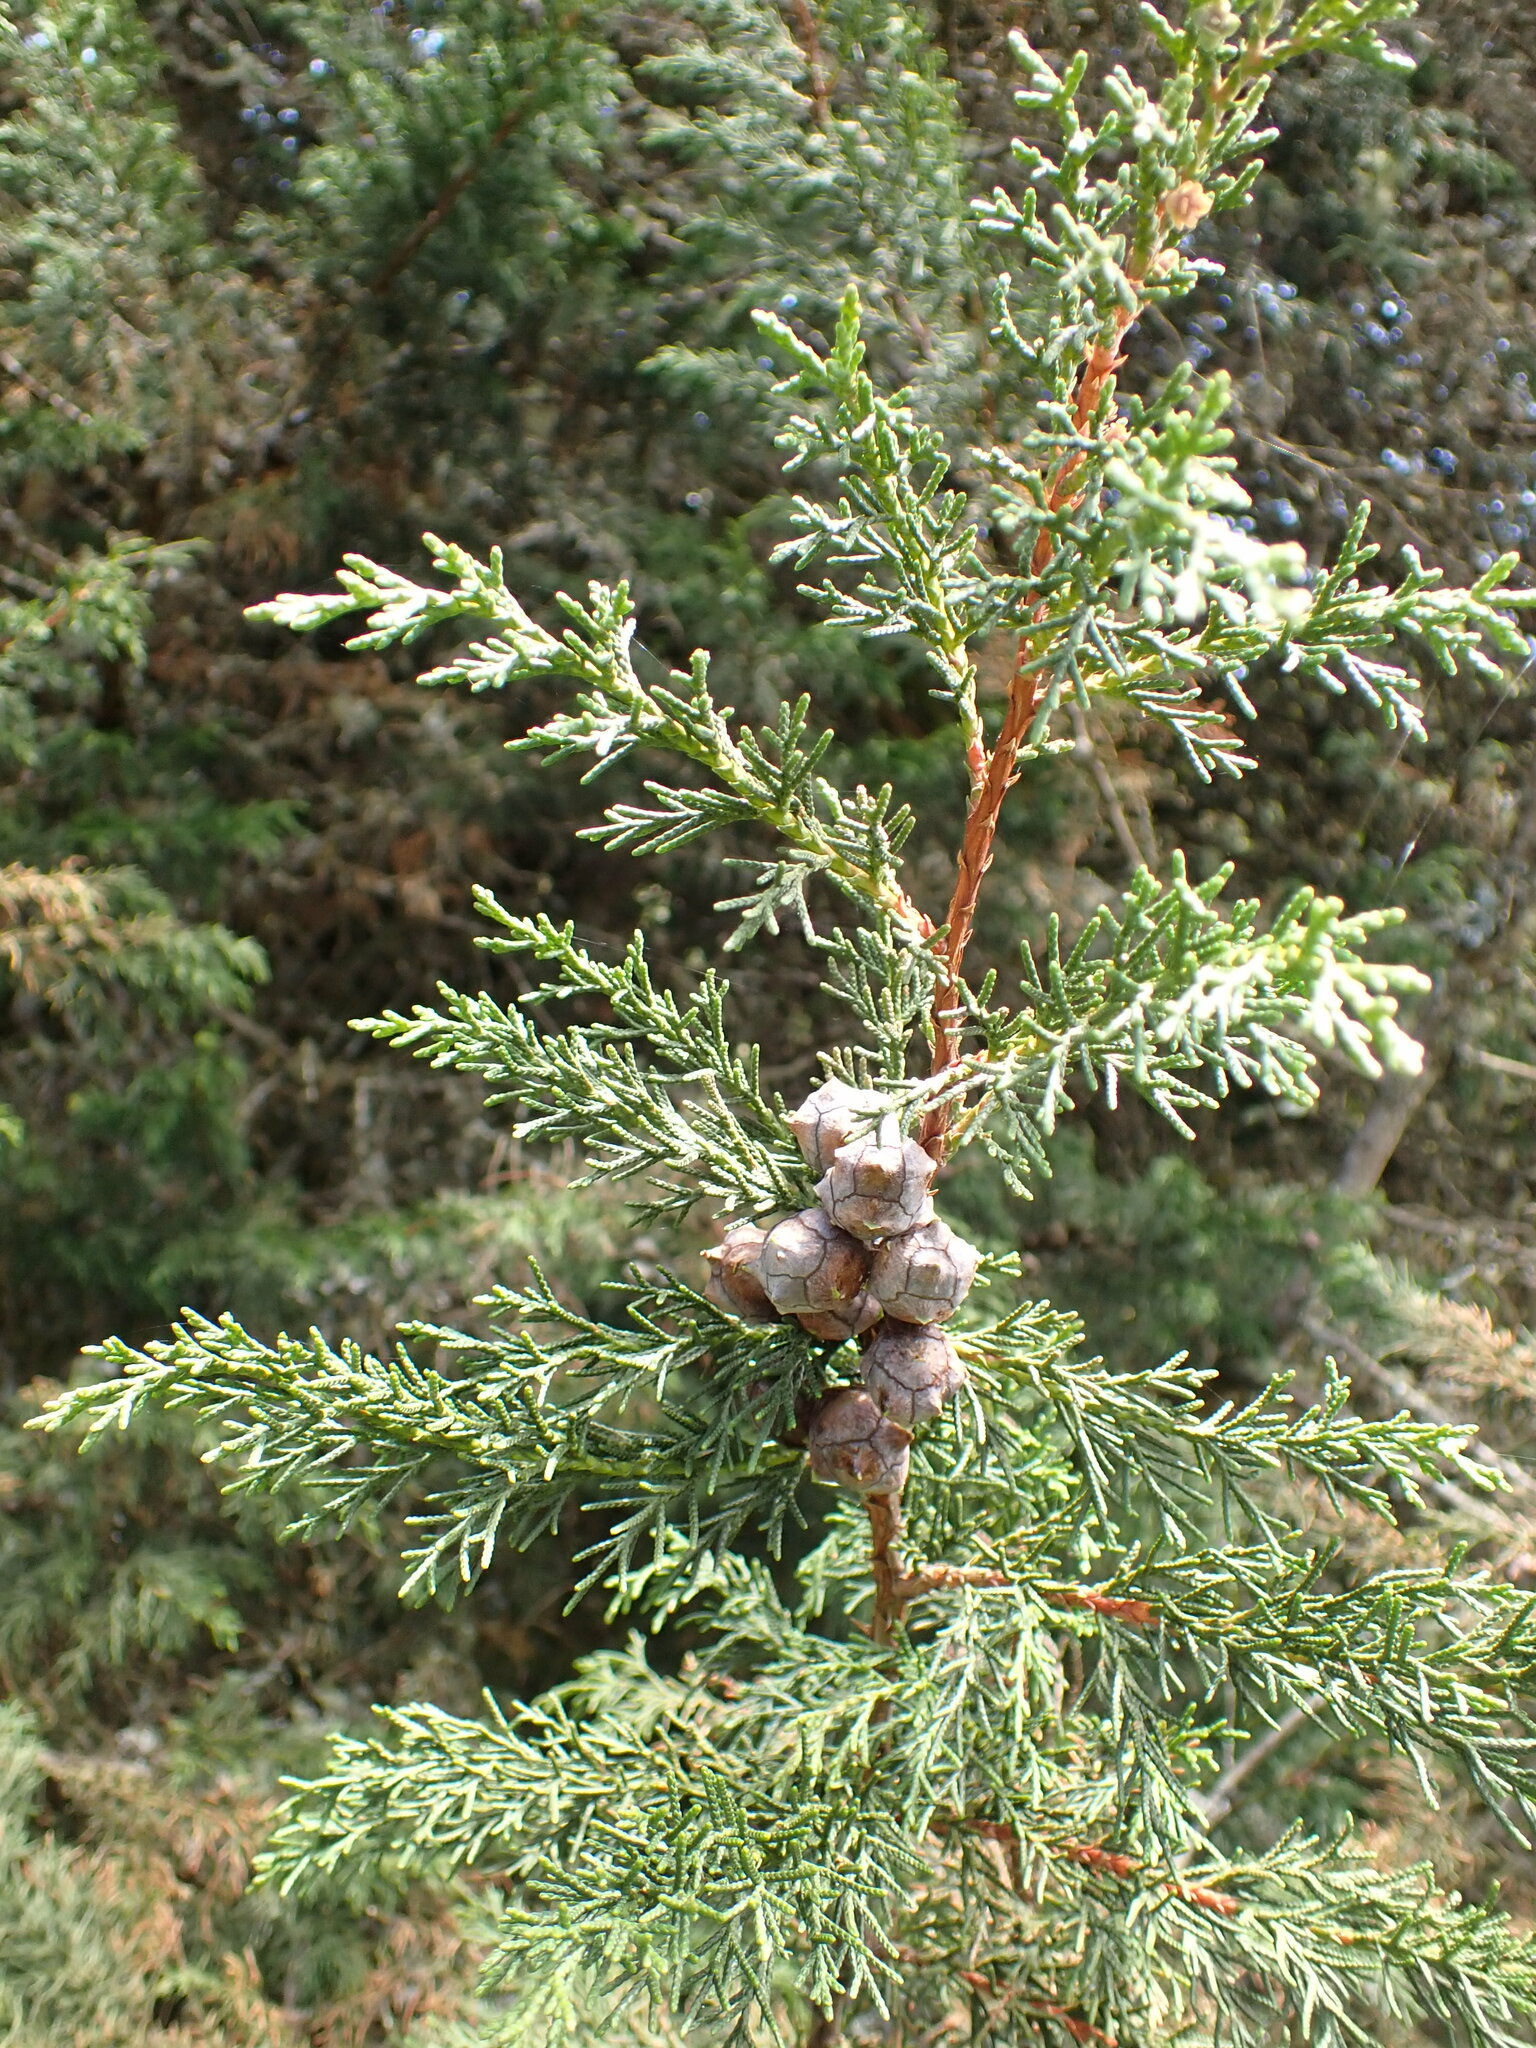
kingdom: Plantae
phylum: Tracheophyta
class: Pinopsida
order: Pinales
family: Cupressaceae
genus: Cupressus
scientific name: Cupressus lusitanica
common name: Mexican cypress
